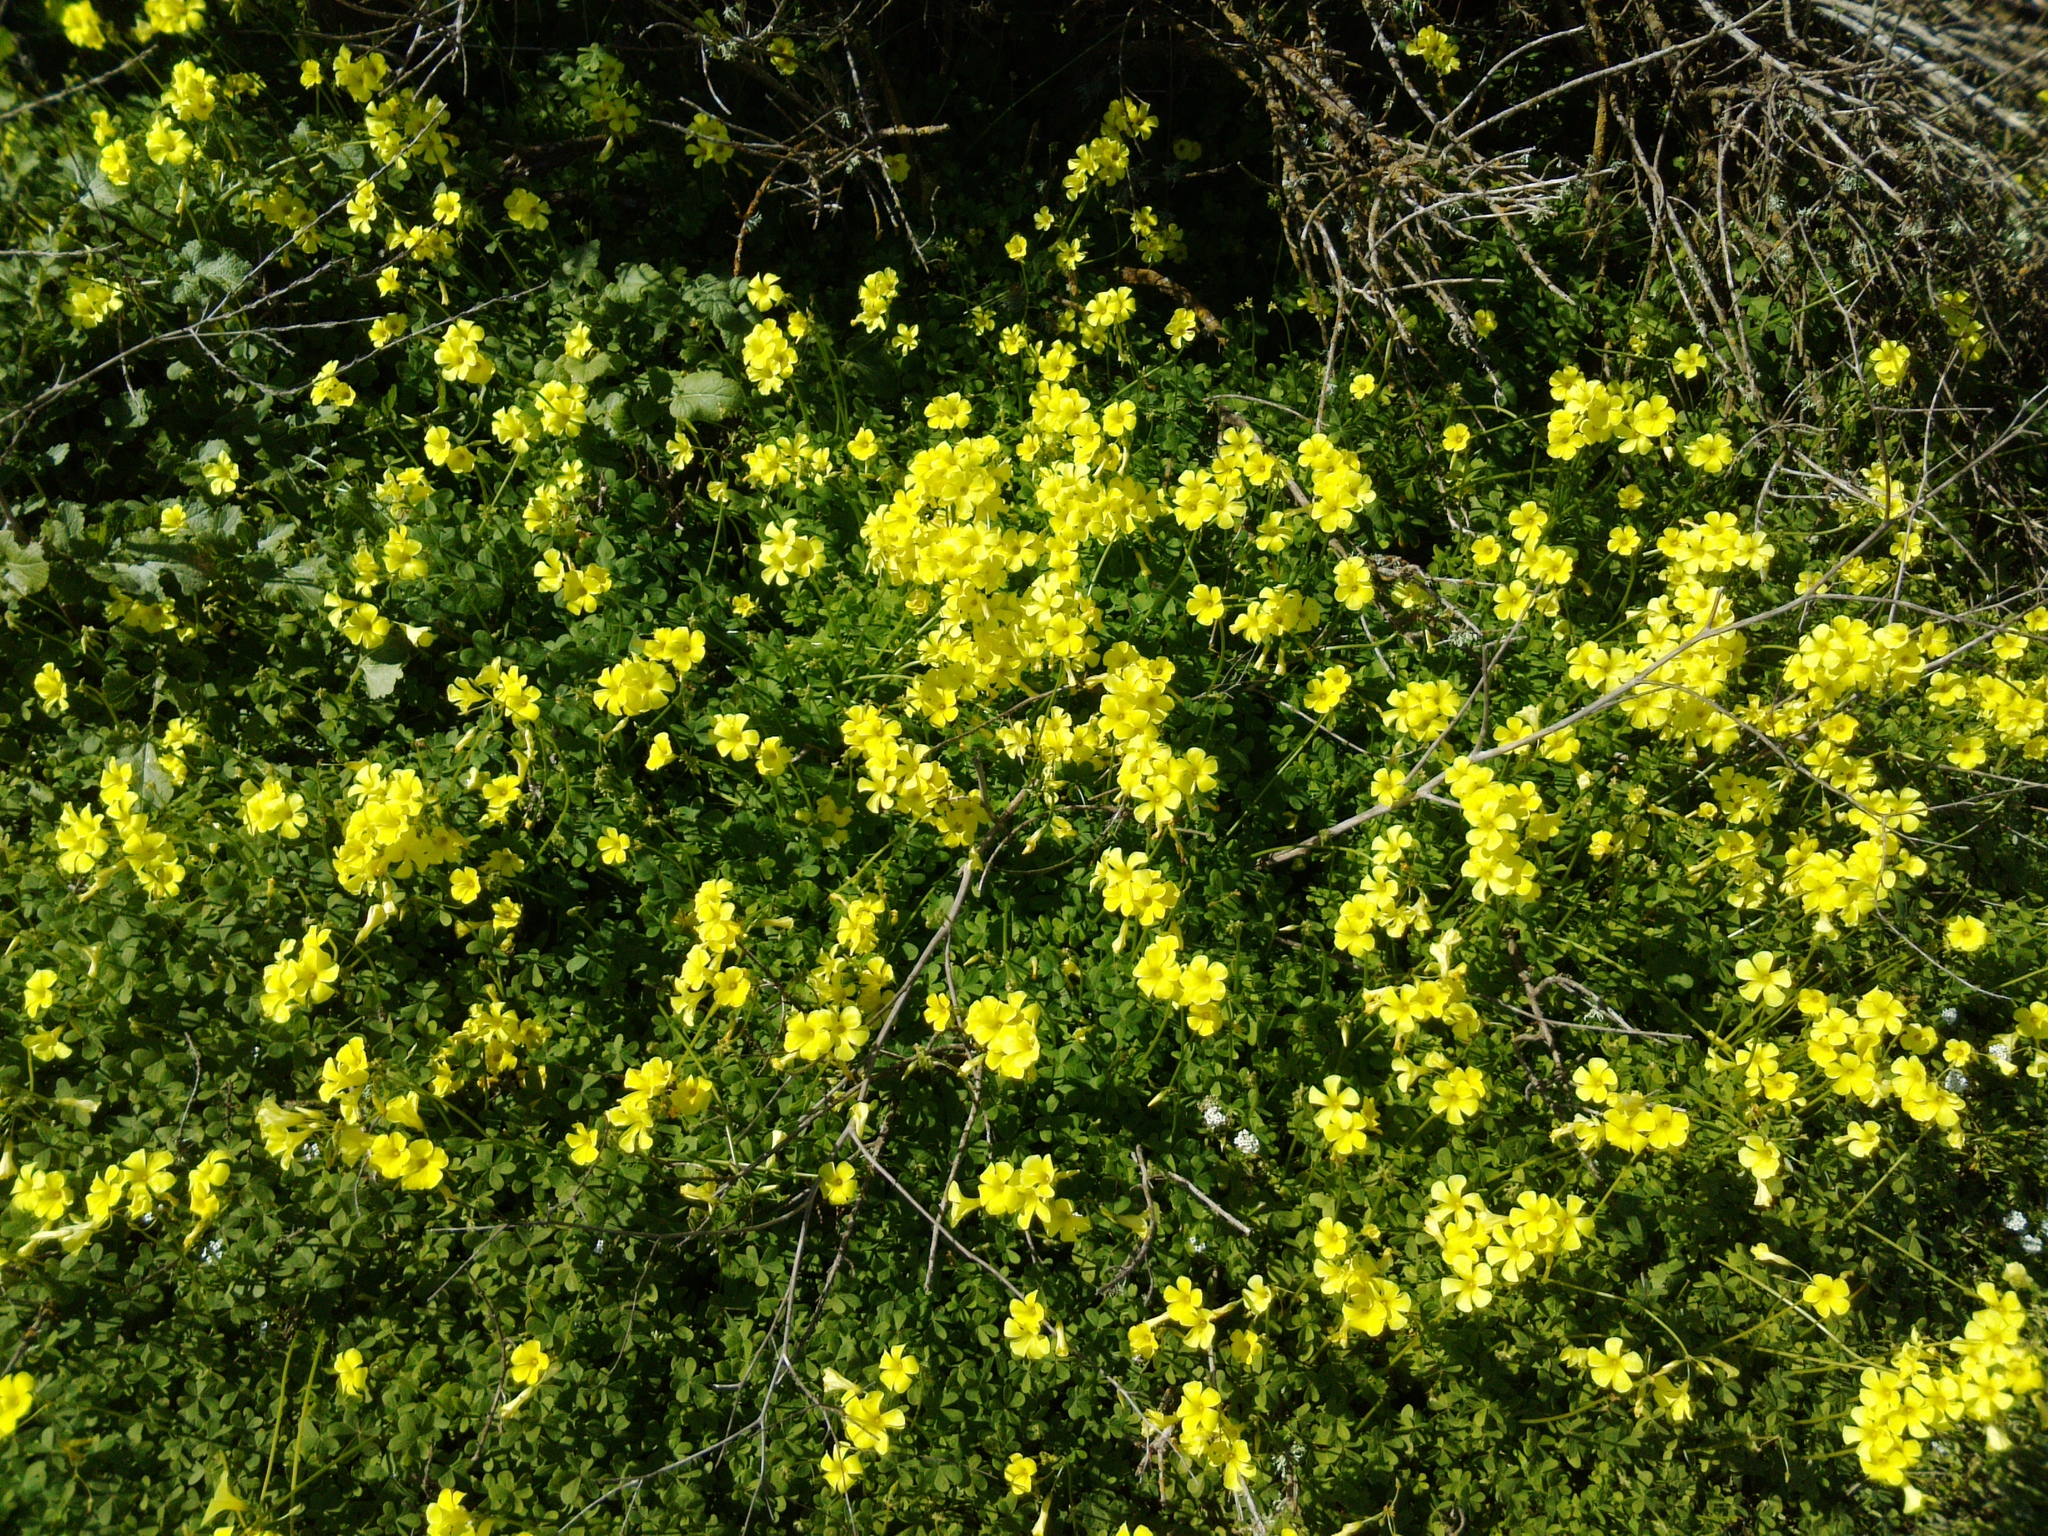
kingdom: Plantae
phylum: Tracheophyta
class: Magnoliopsida
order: Oxalidales
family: Oxalidaceae
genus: Oxalis
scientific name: Oxalis pes-caprae
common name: Bermuda-buttercup
